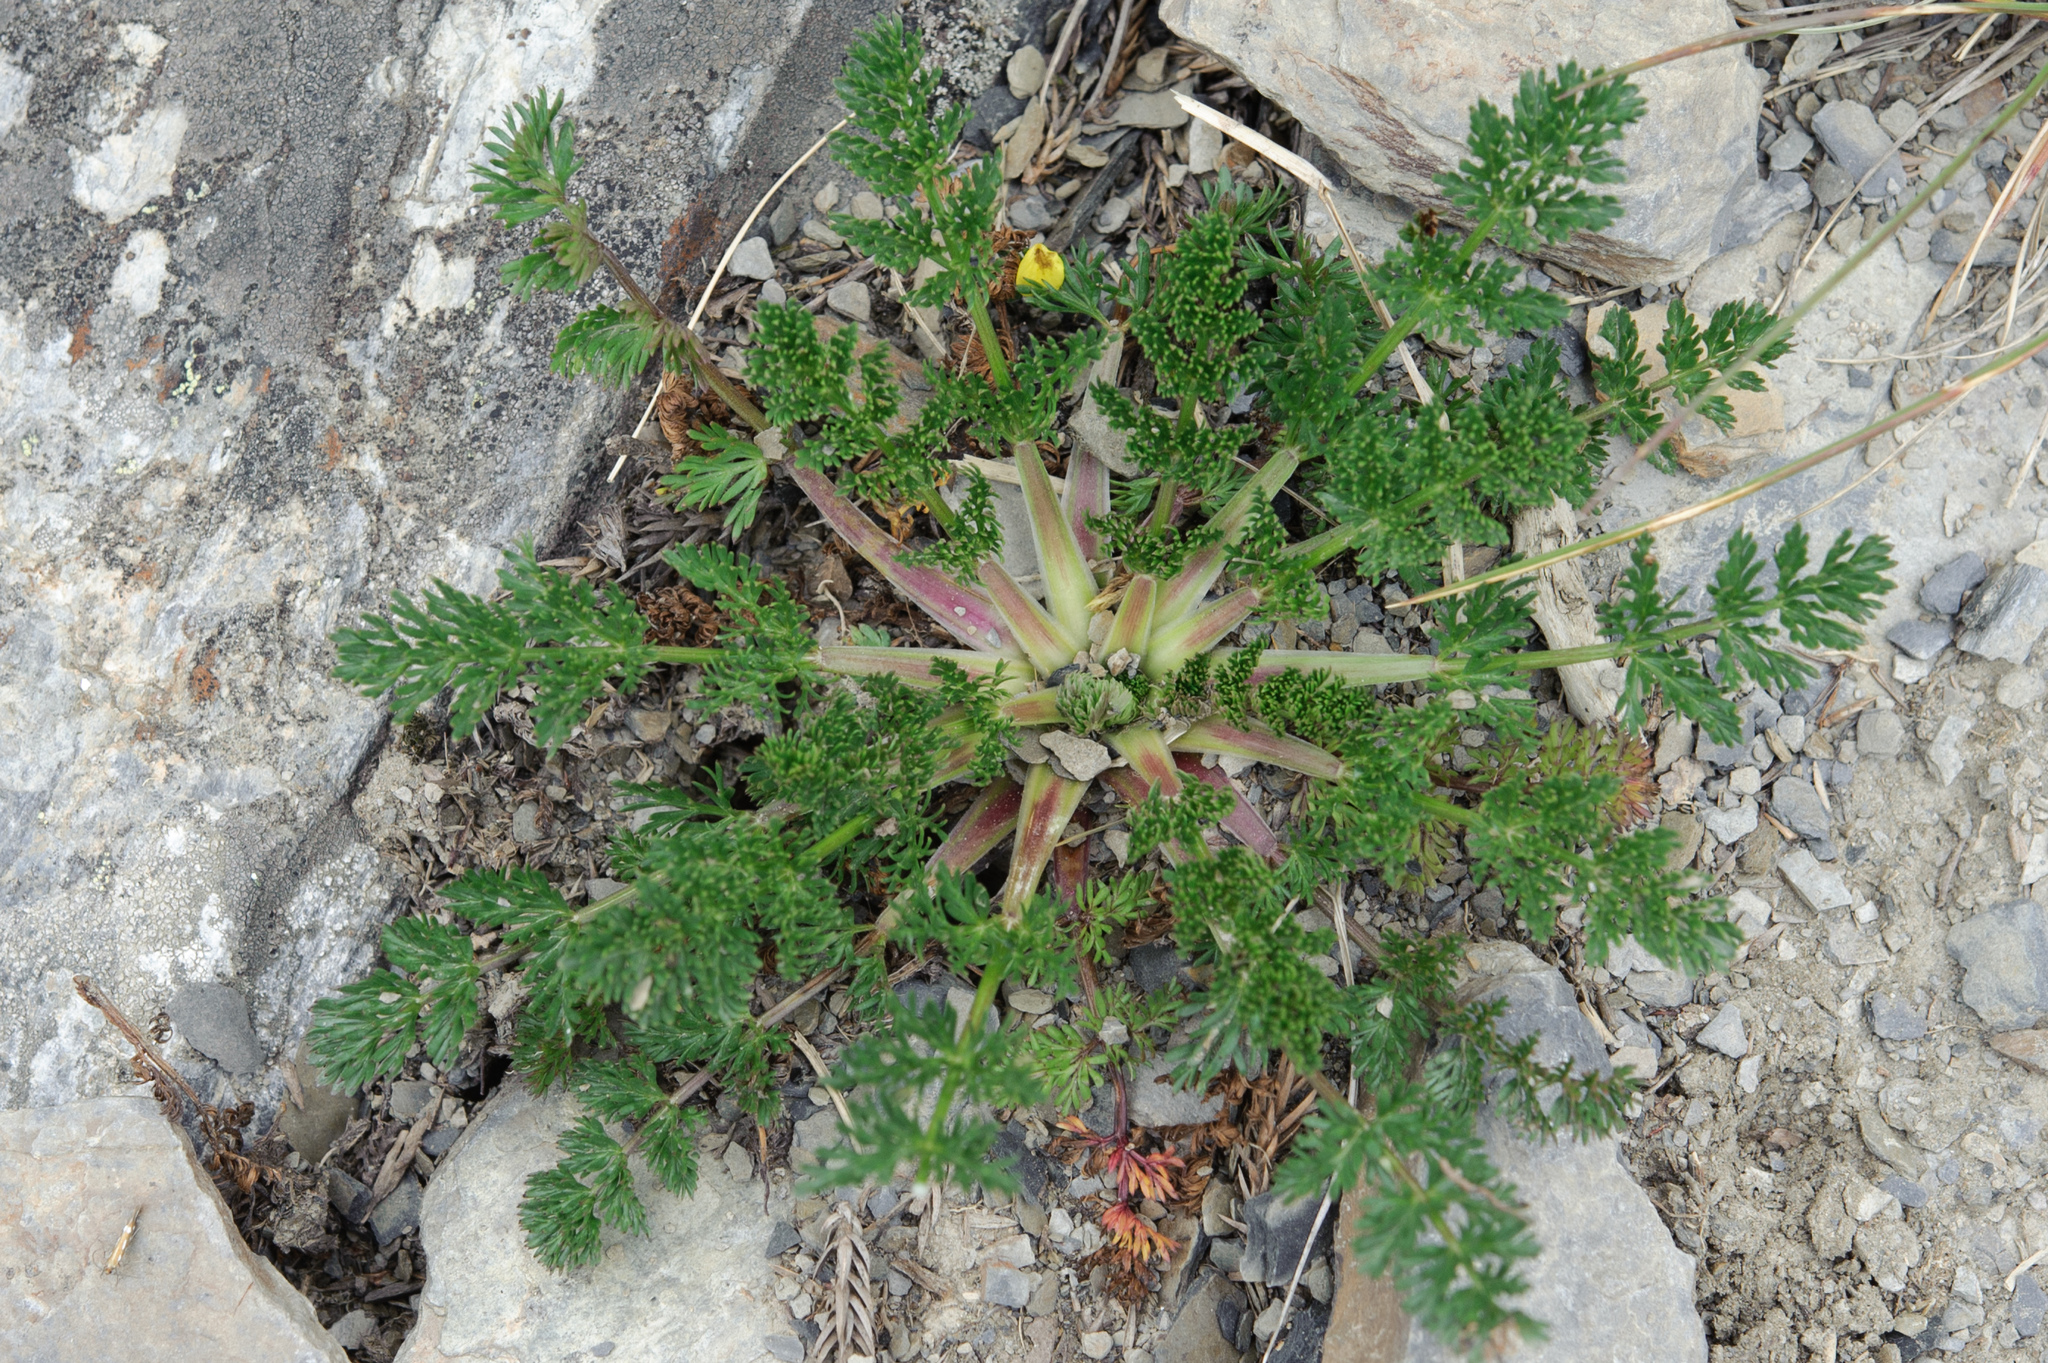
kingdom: Plantae
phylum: Tracheophyta
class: Magnoliopsida
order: Apiales
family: Apiaceae
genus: Chaerophyllum
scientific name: Chaerophyllum taiwanianum
